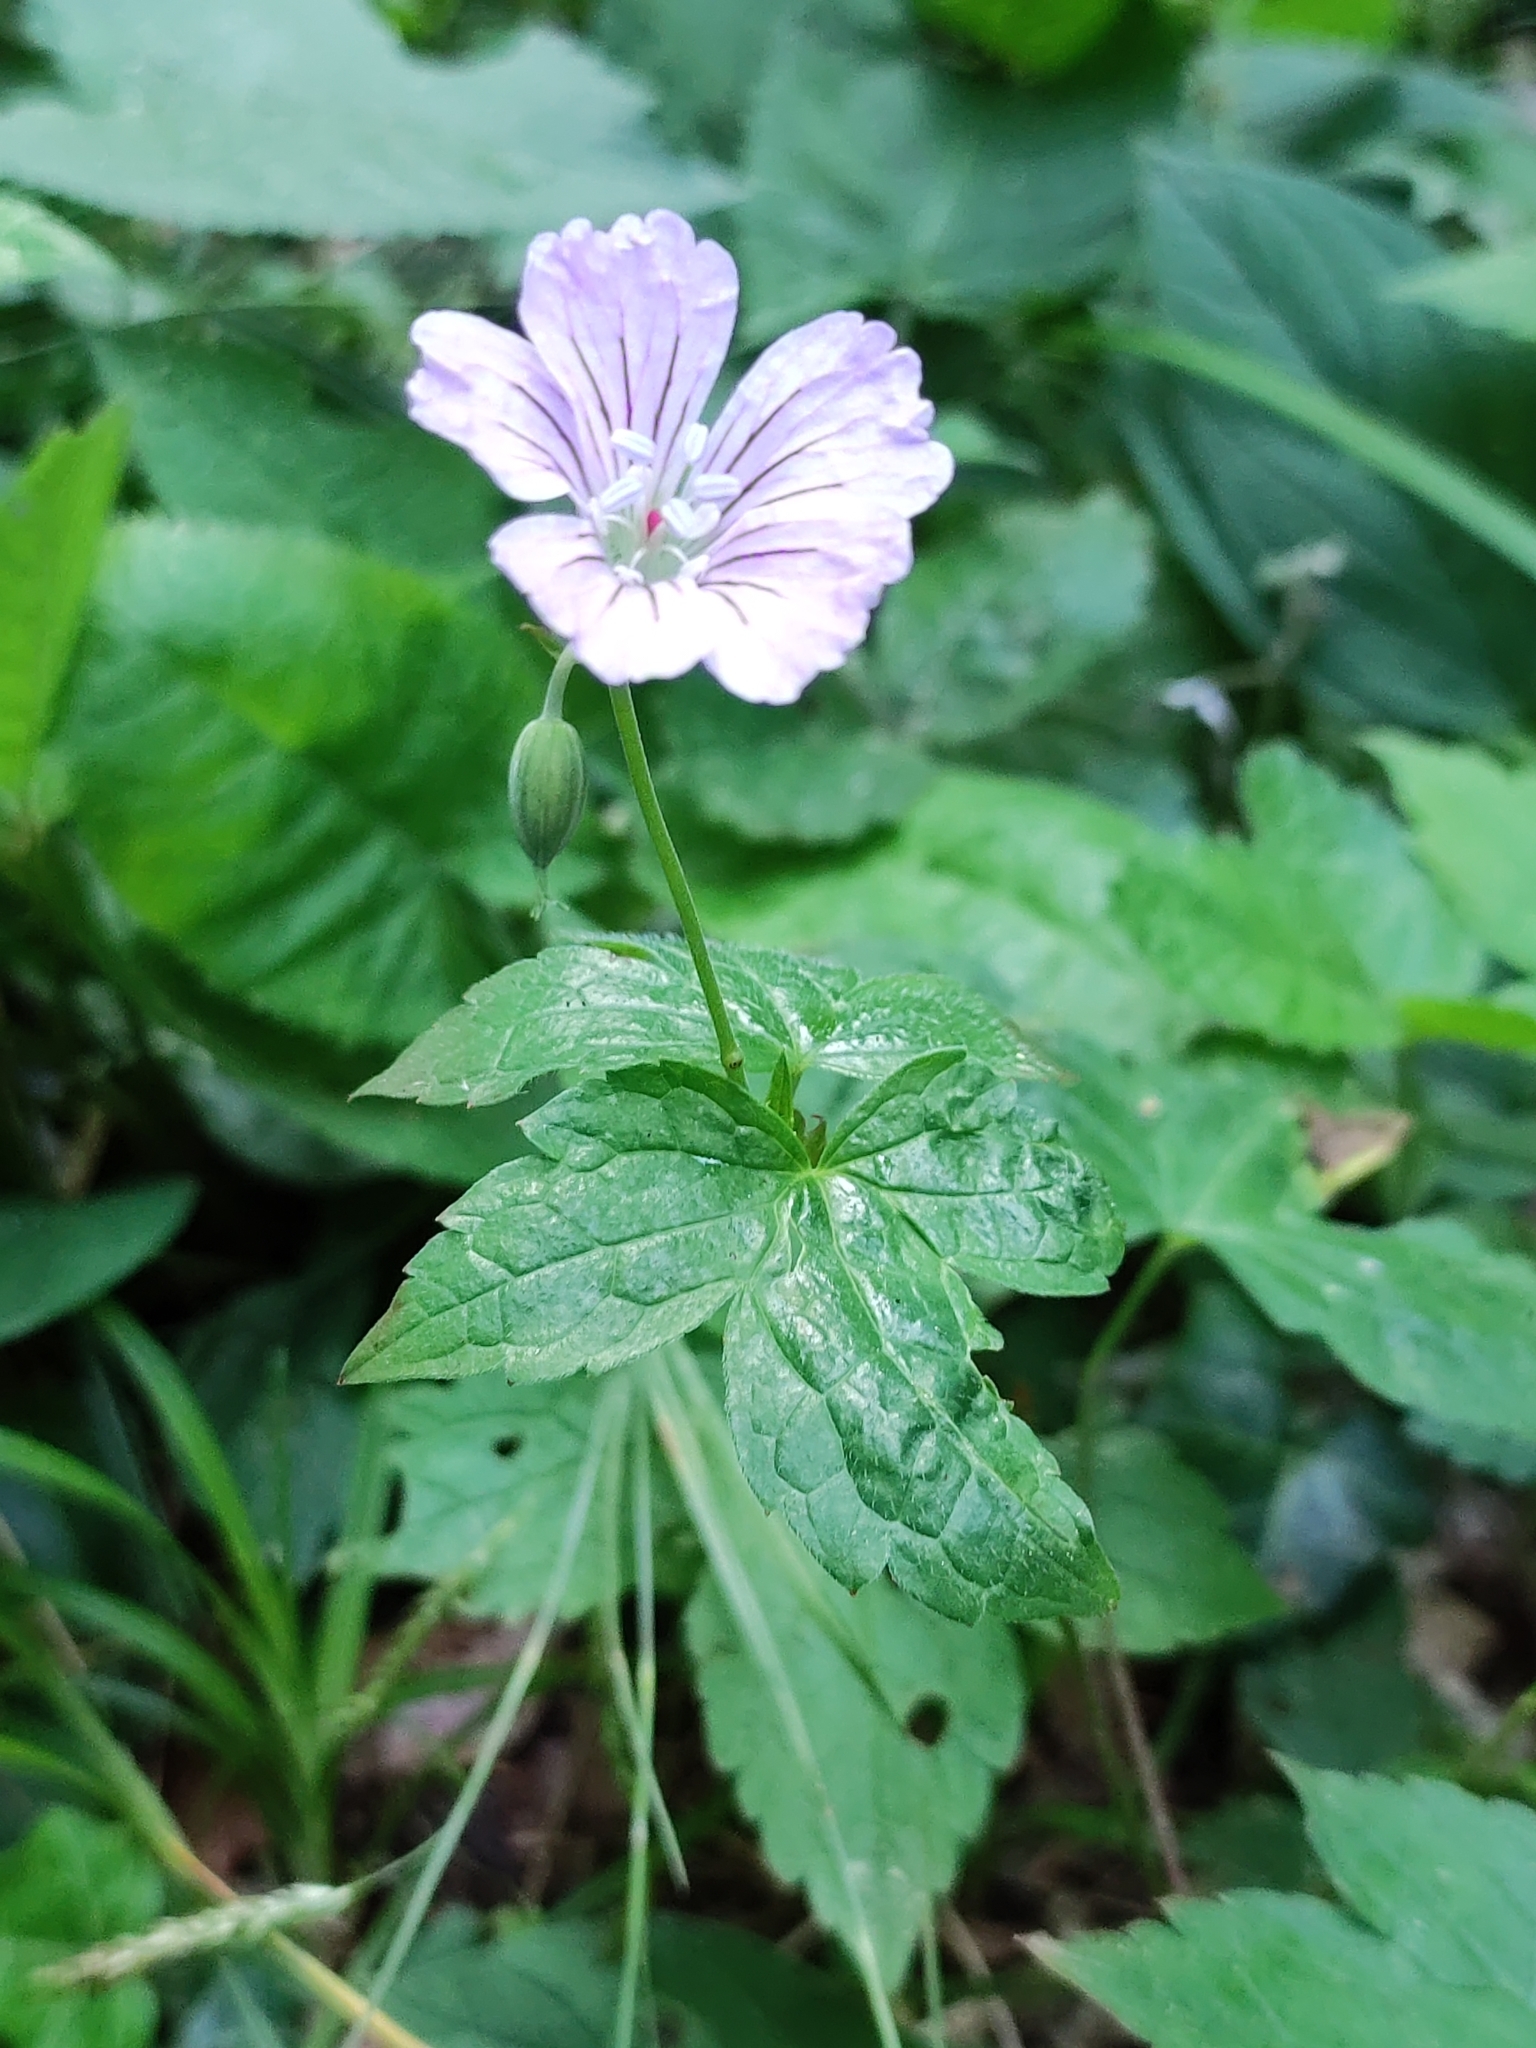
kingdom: Plantae
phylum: Tracheophyta
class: Magnoliopsida
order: Geraniales
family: Geraniaceae
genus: Geranium
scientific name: Geranium nodosum
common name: Knotted crane's-bill
